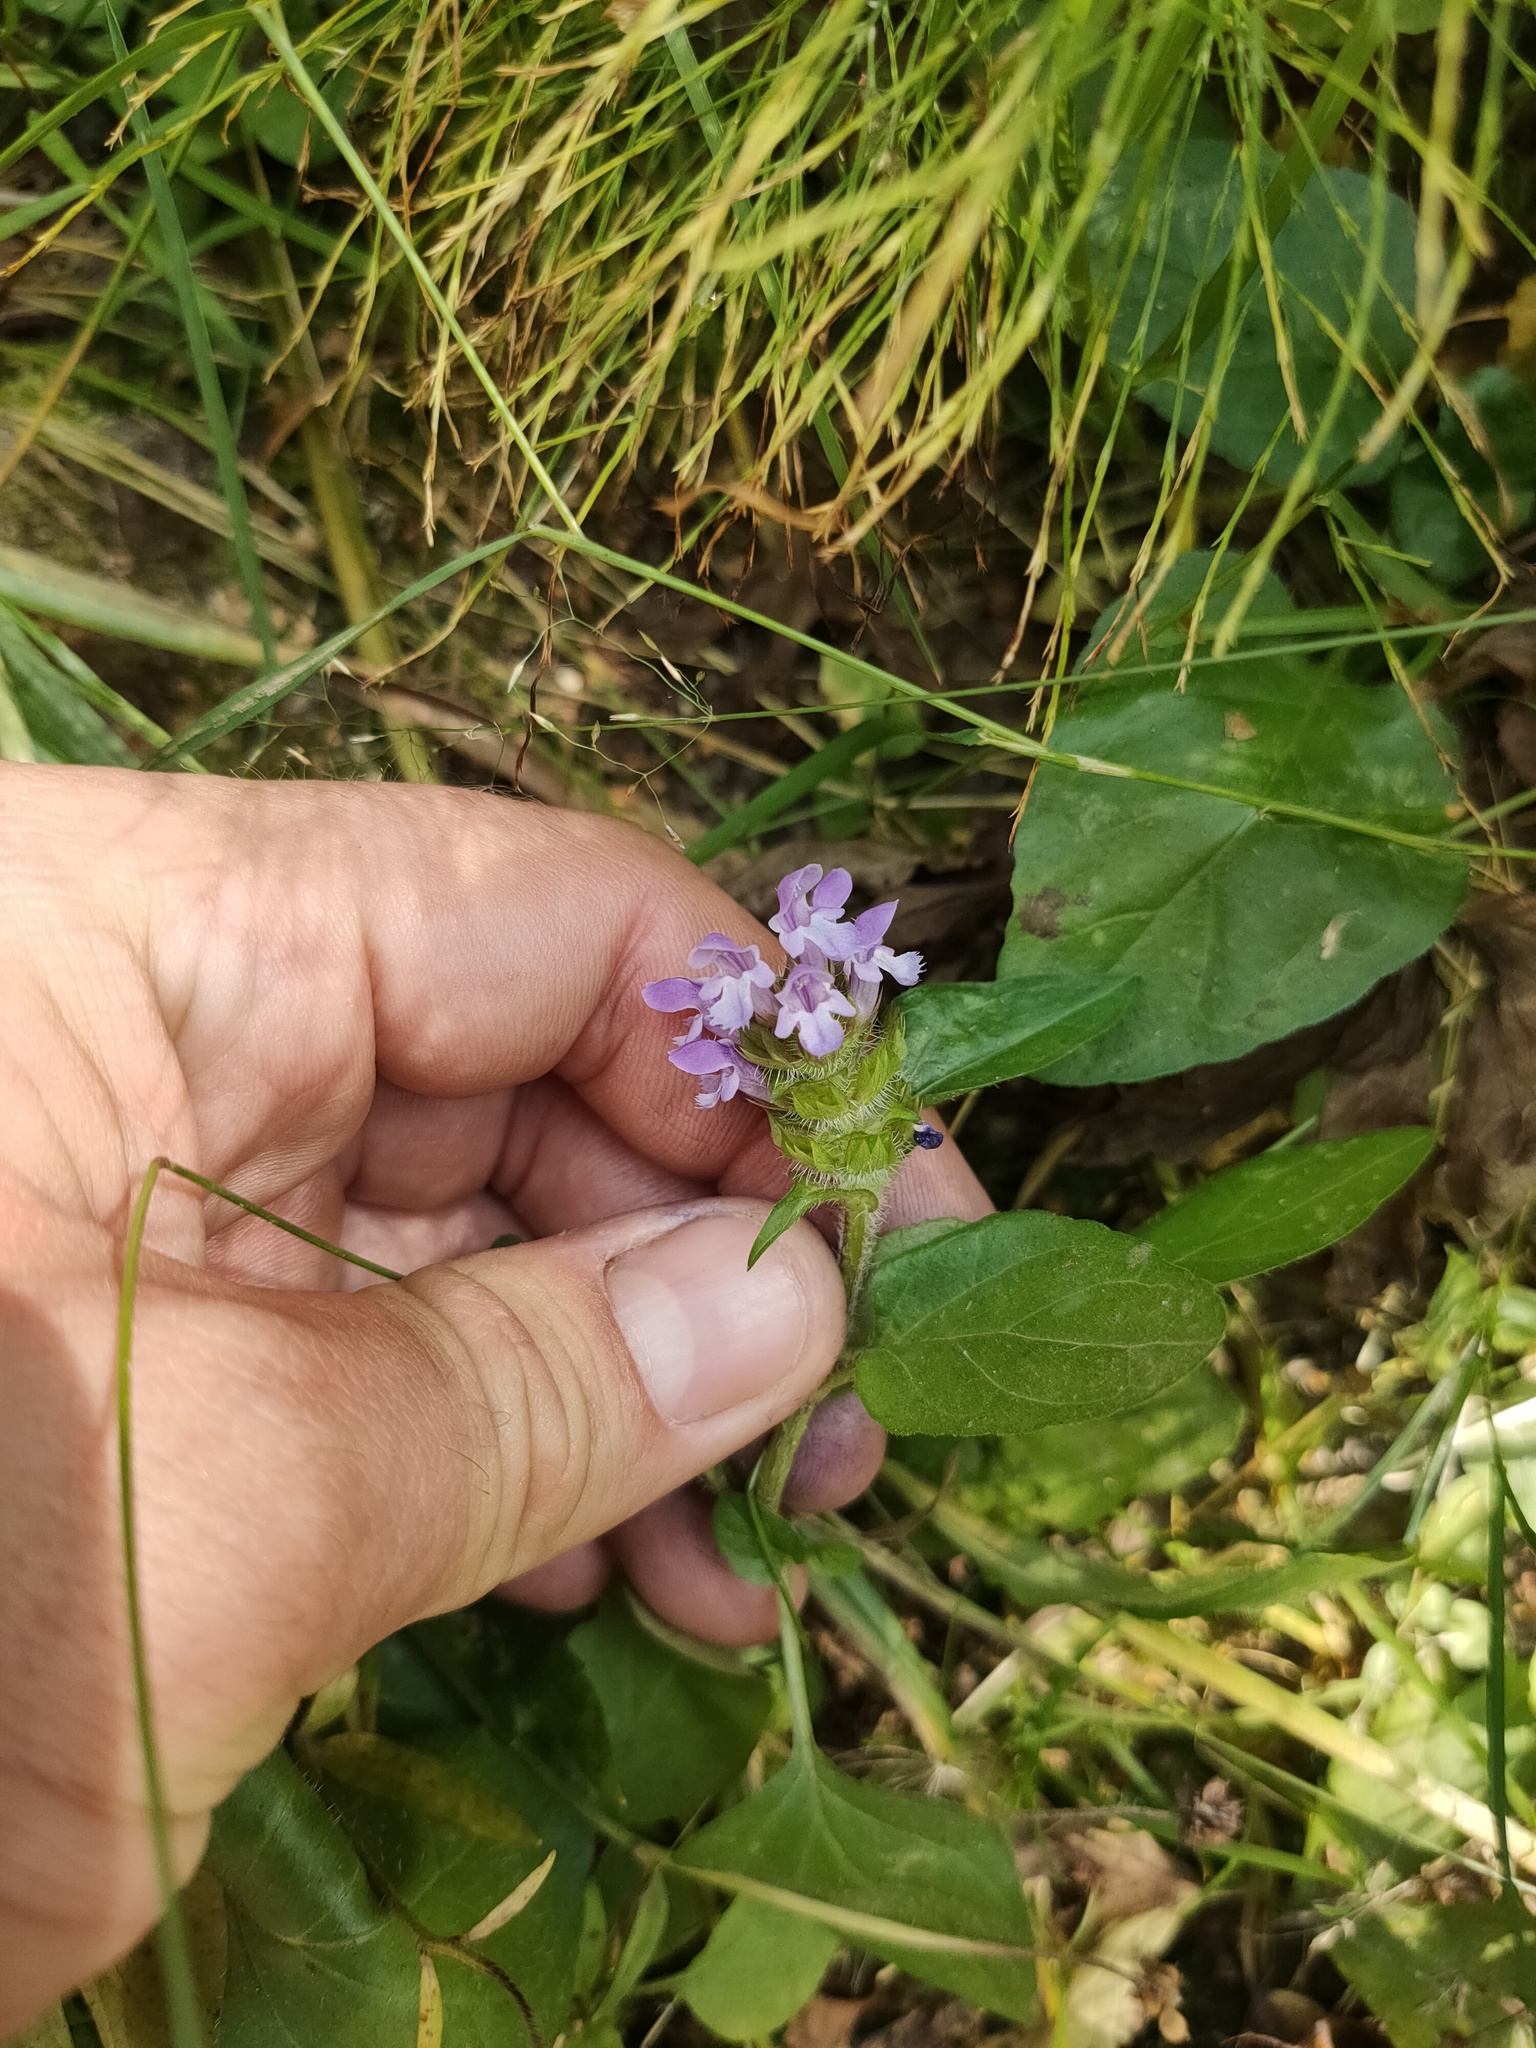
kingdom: Plantae
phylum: Tracheophyta
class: Magnoliopsida
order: Lamiales
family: Lamiaceae
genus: Prunella
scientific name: Prunella vulgaris
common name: Heal-all
